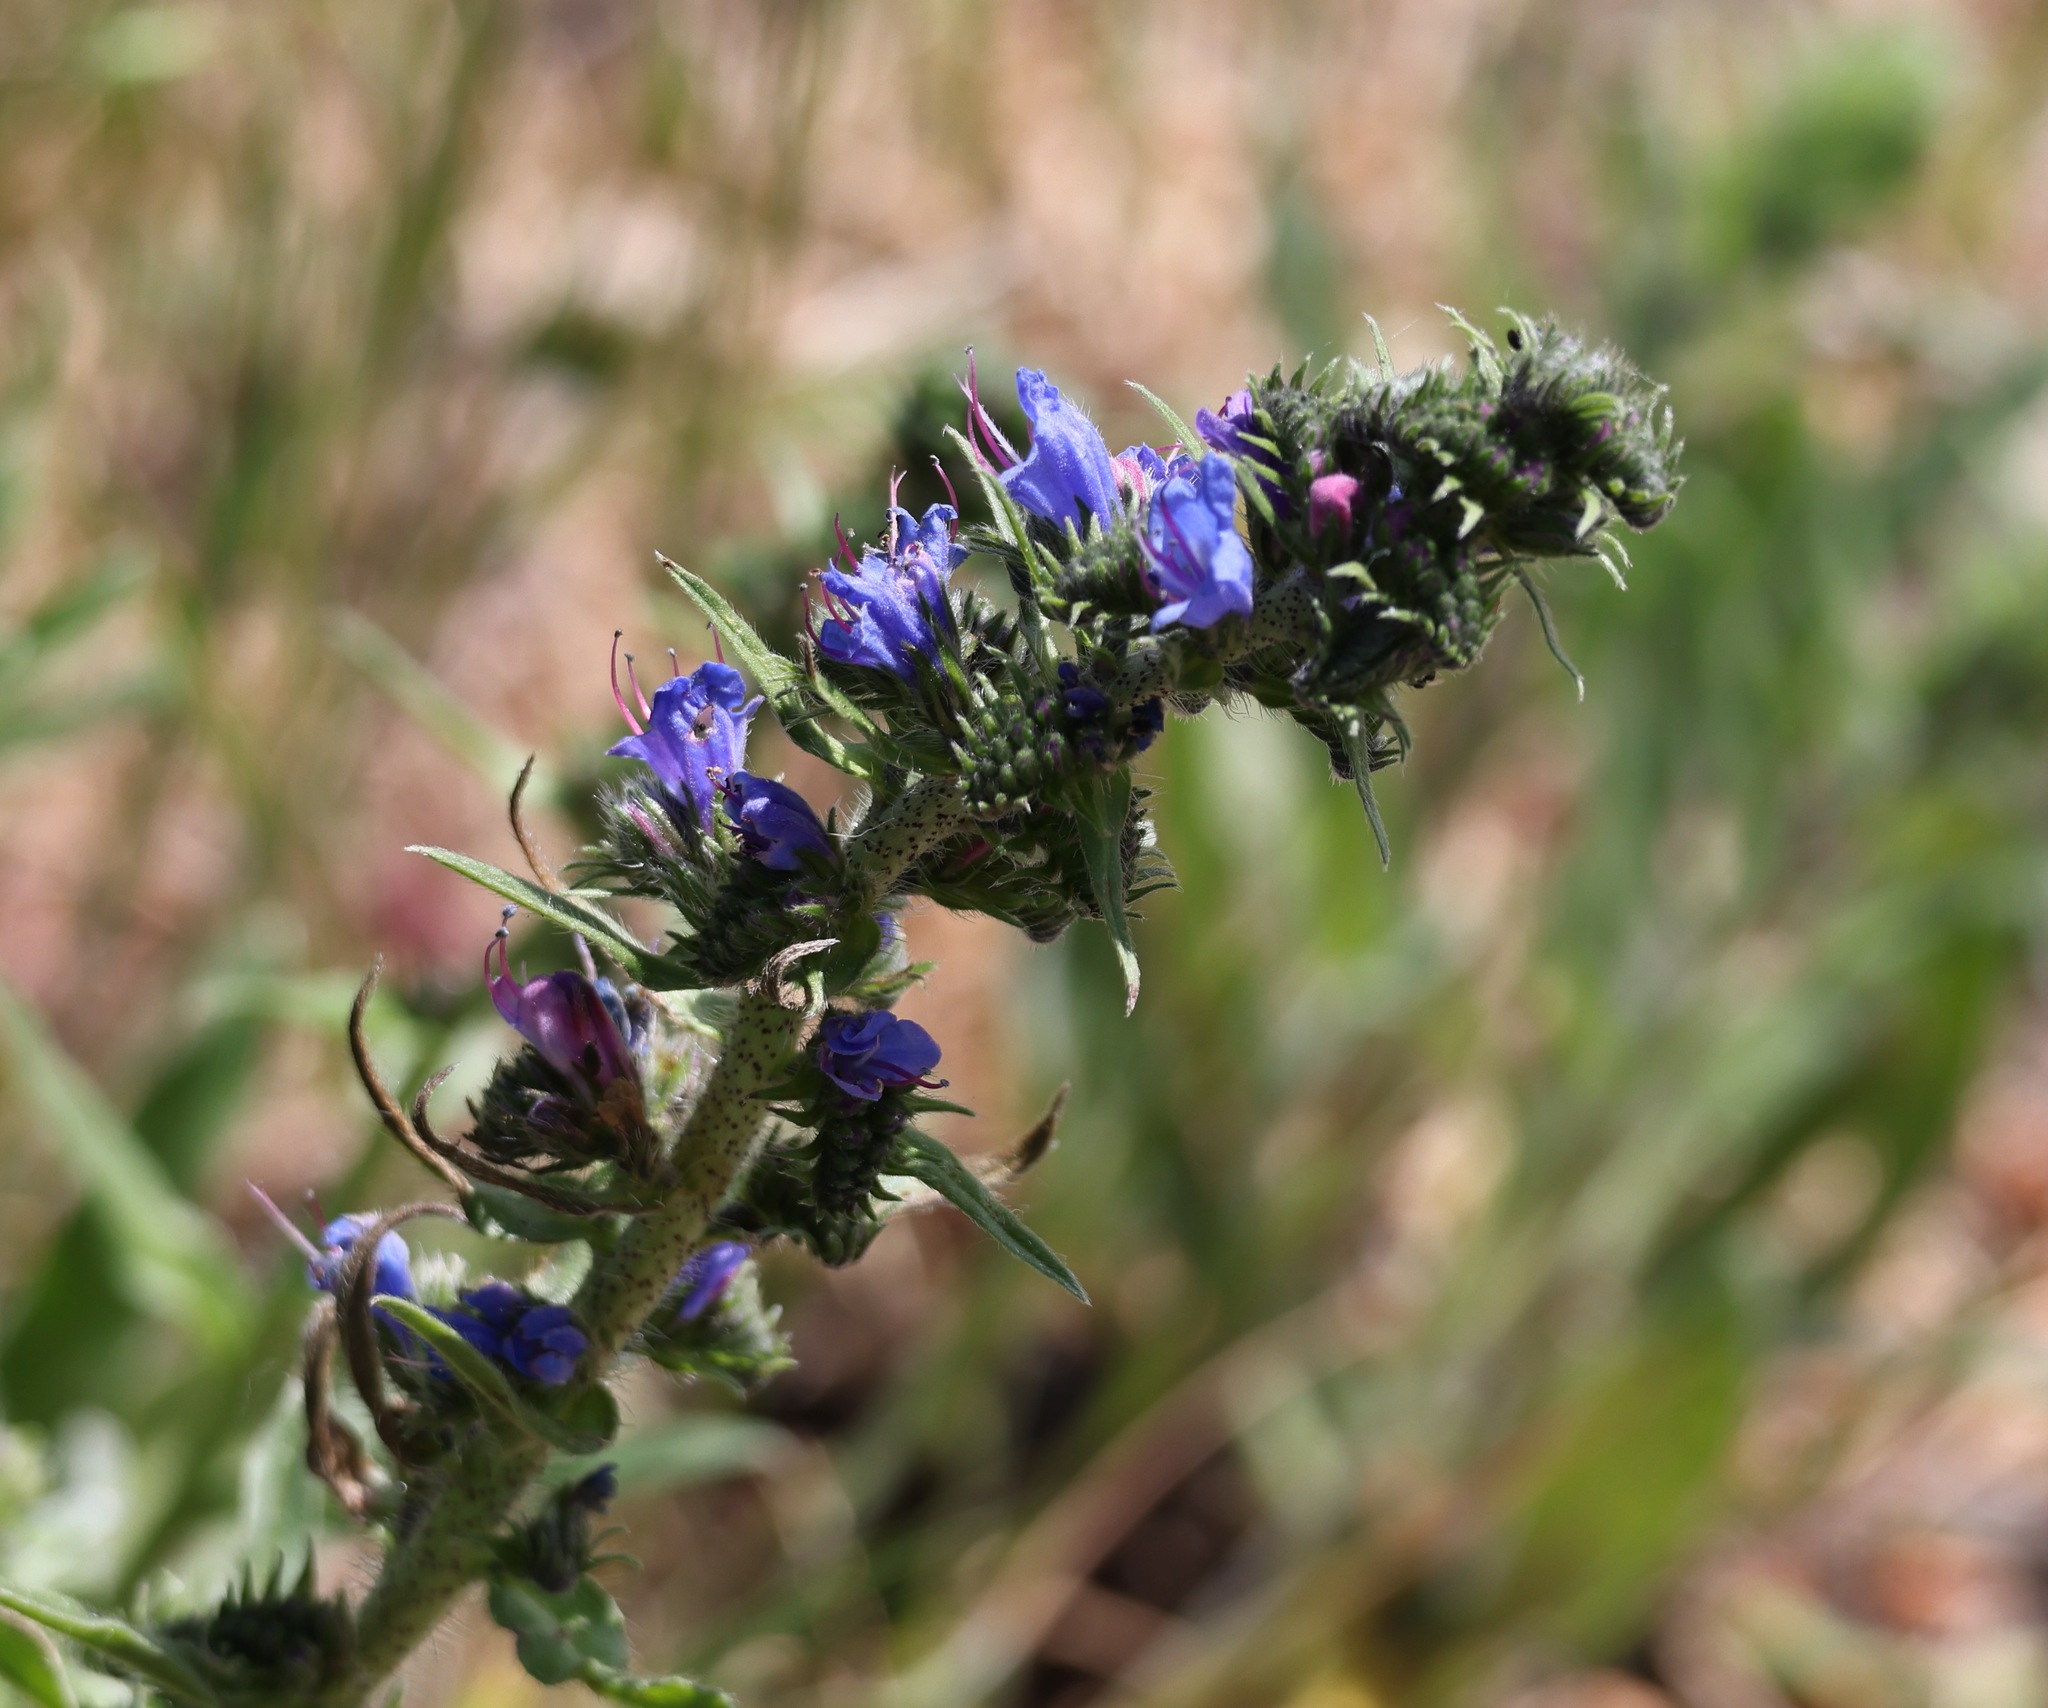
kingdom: Plantae
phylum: Tracheophyta
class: Magnoliopsida
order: Boraginales
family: Boraginaceae
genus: Echium
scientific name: Echium vulgare
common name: Common viper's bugloss
